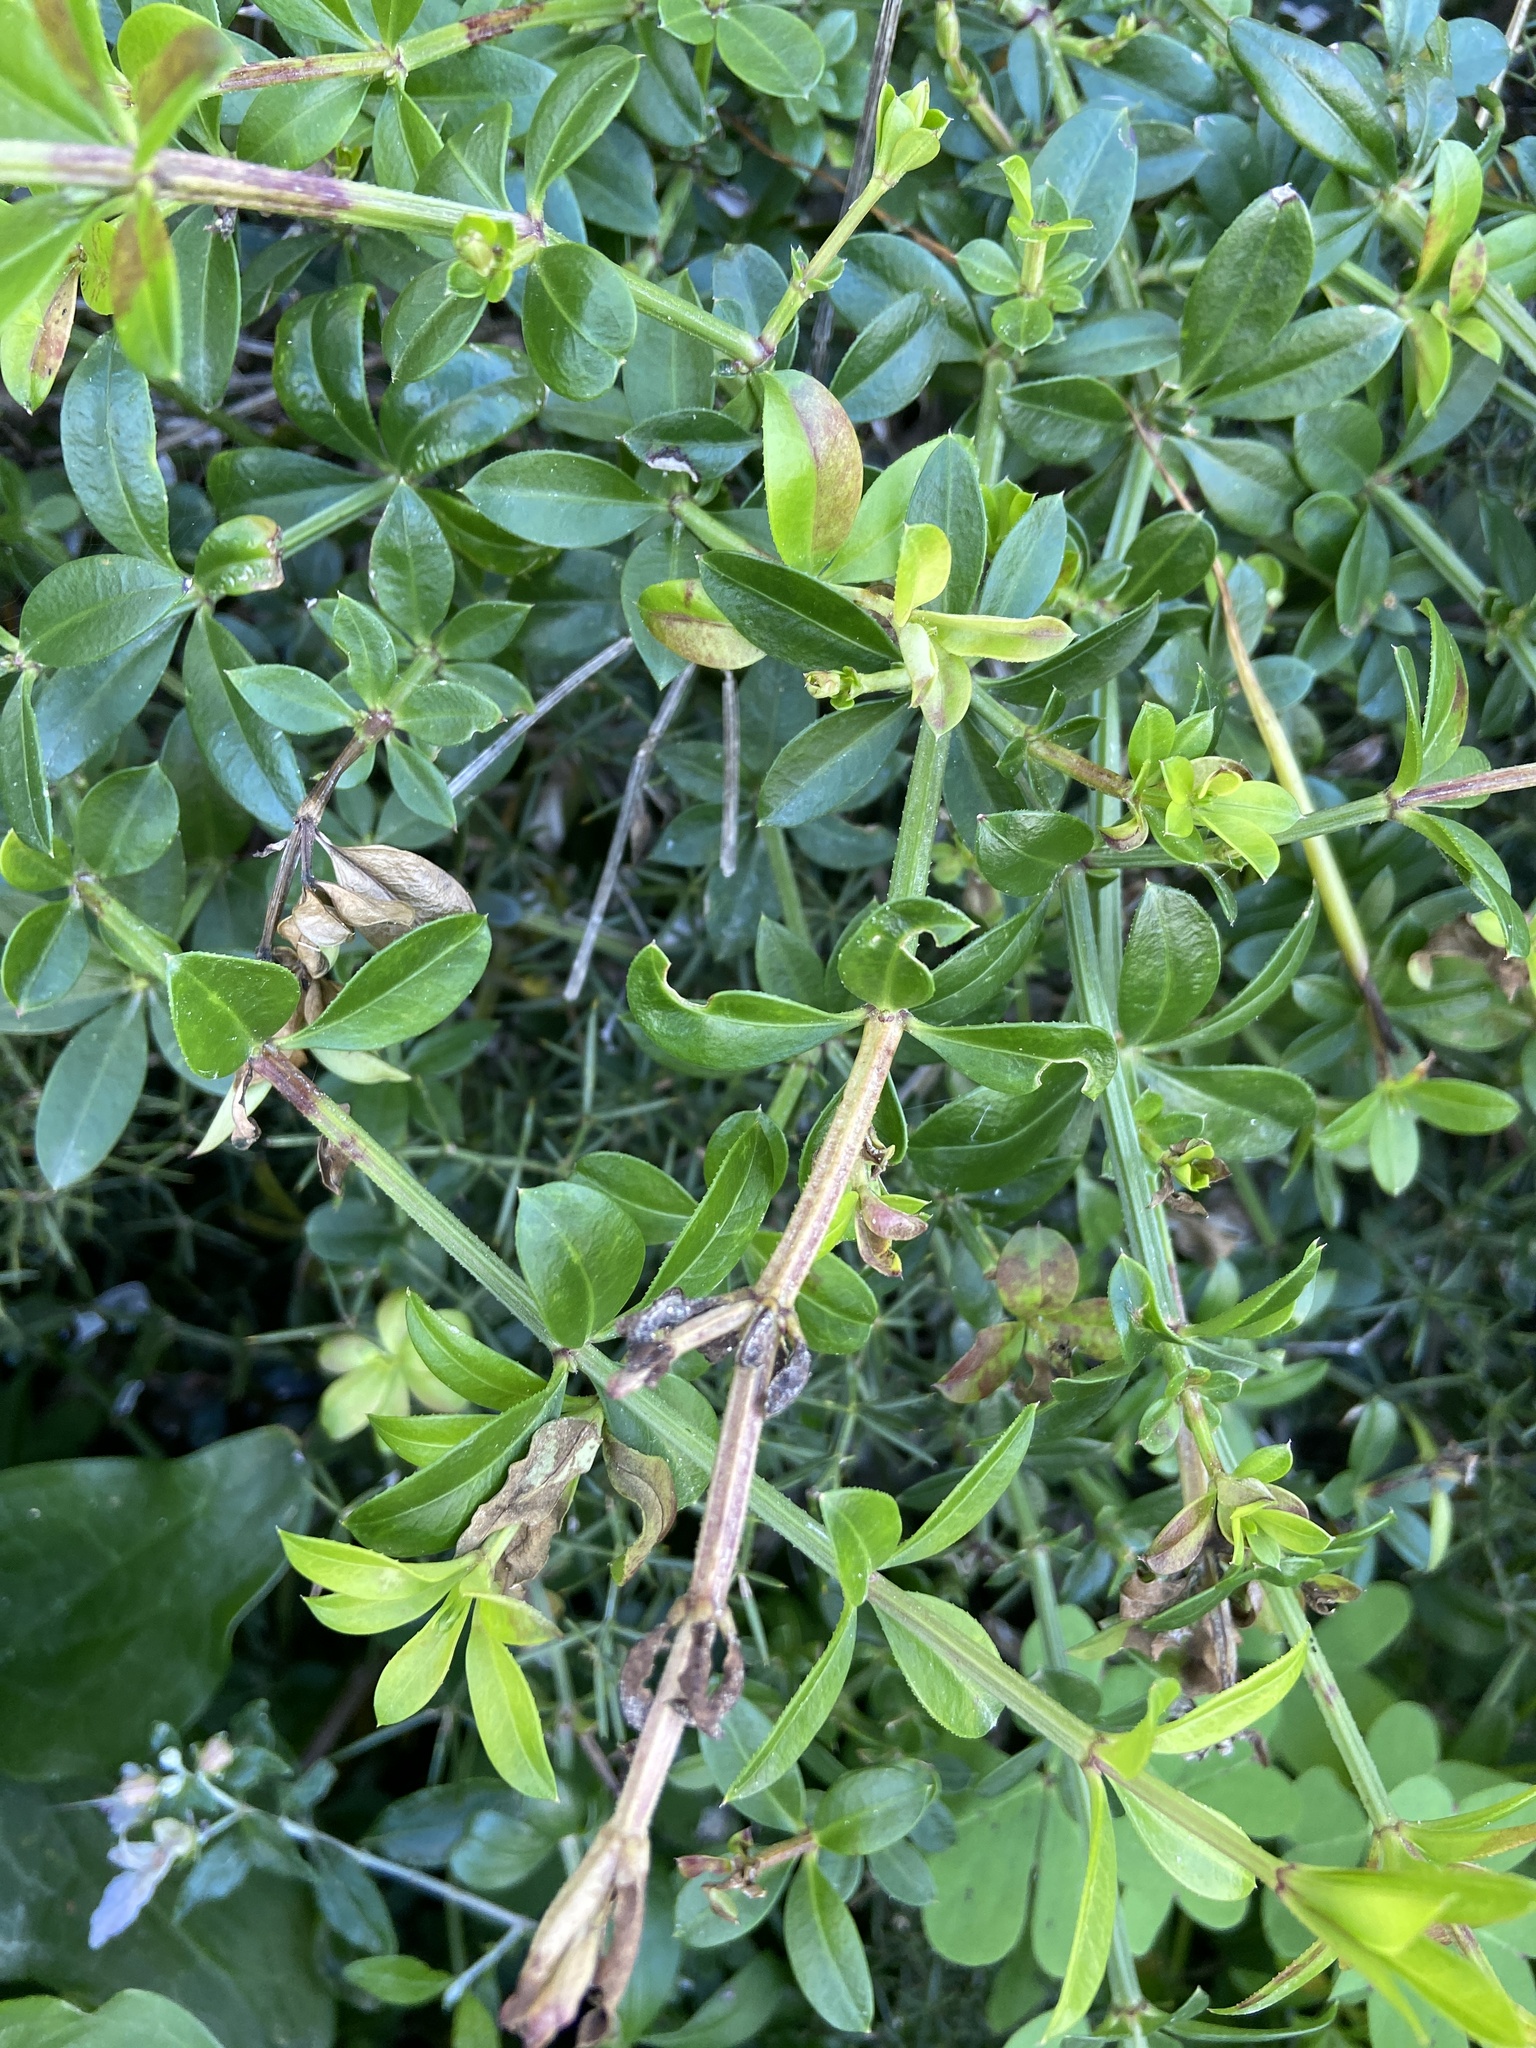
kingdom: Plantae
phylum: Tracheophyta
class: Magnoliopsida
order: Gentianales
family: Rubiaceae
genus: Rubia
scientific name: Rubia peregrina
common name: Wild madder
